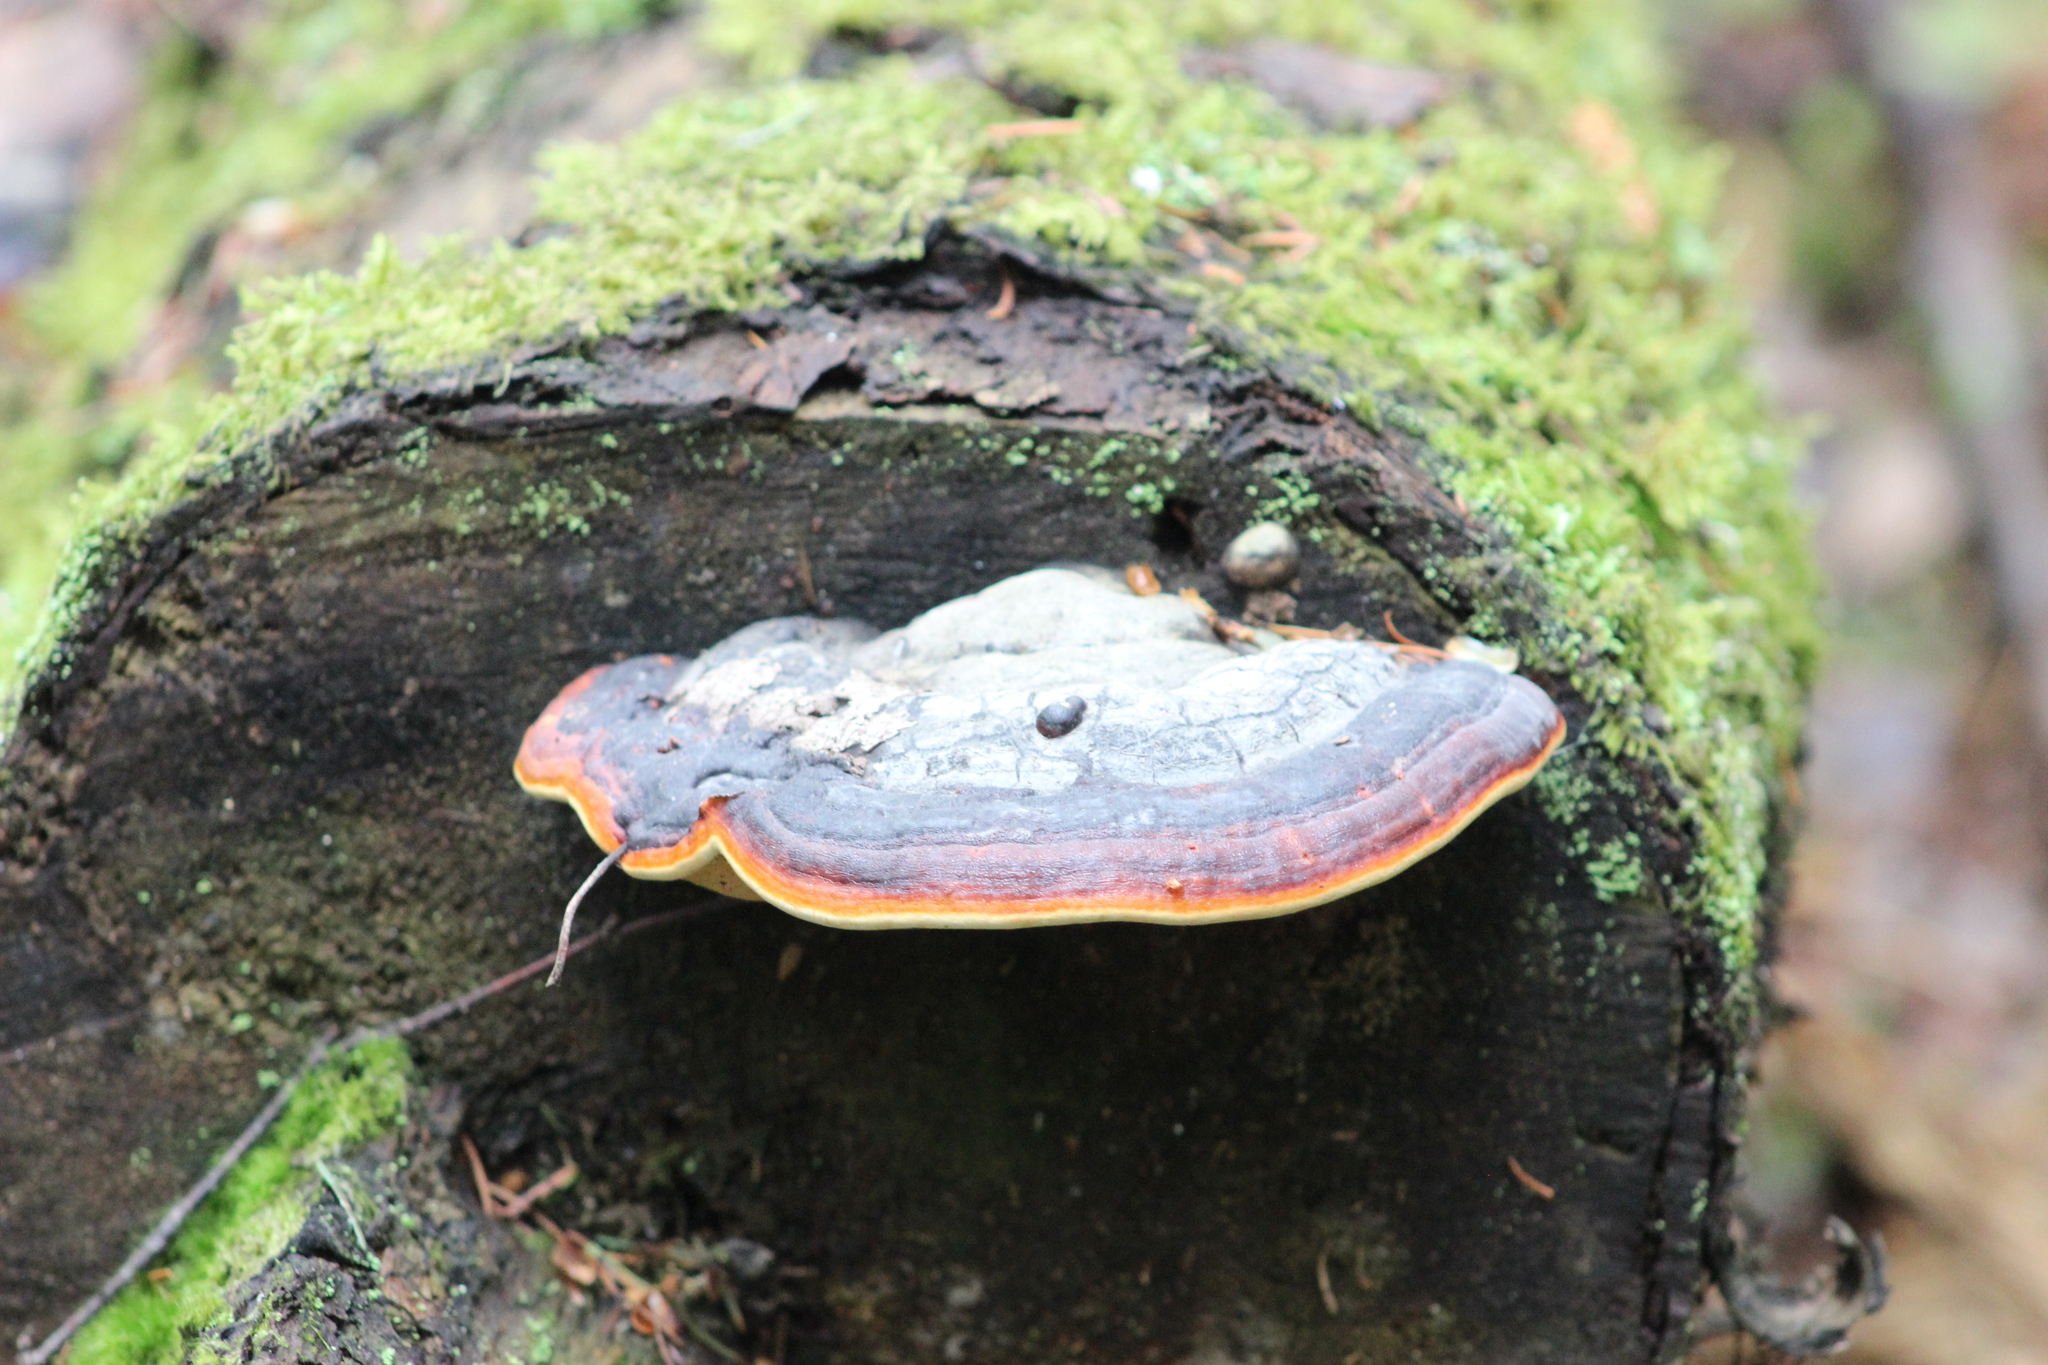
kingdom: Fungi
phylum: Basidiomycota
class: Agaricomycetes
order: Polyporales
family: Fomitopsidaceae
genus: Fomitopsis
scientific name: Fomitopsis pinicola
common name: Red-belted bracket
